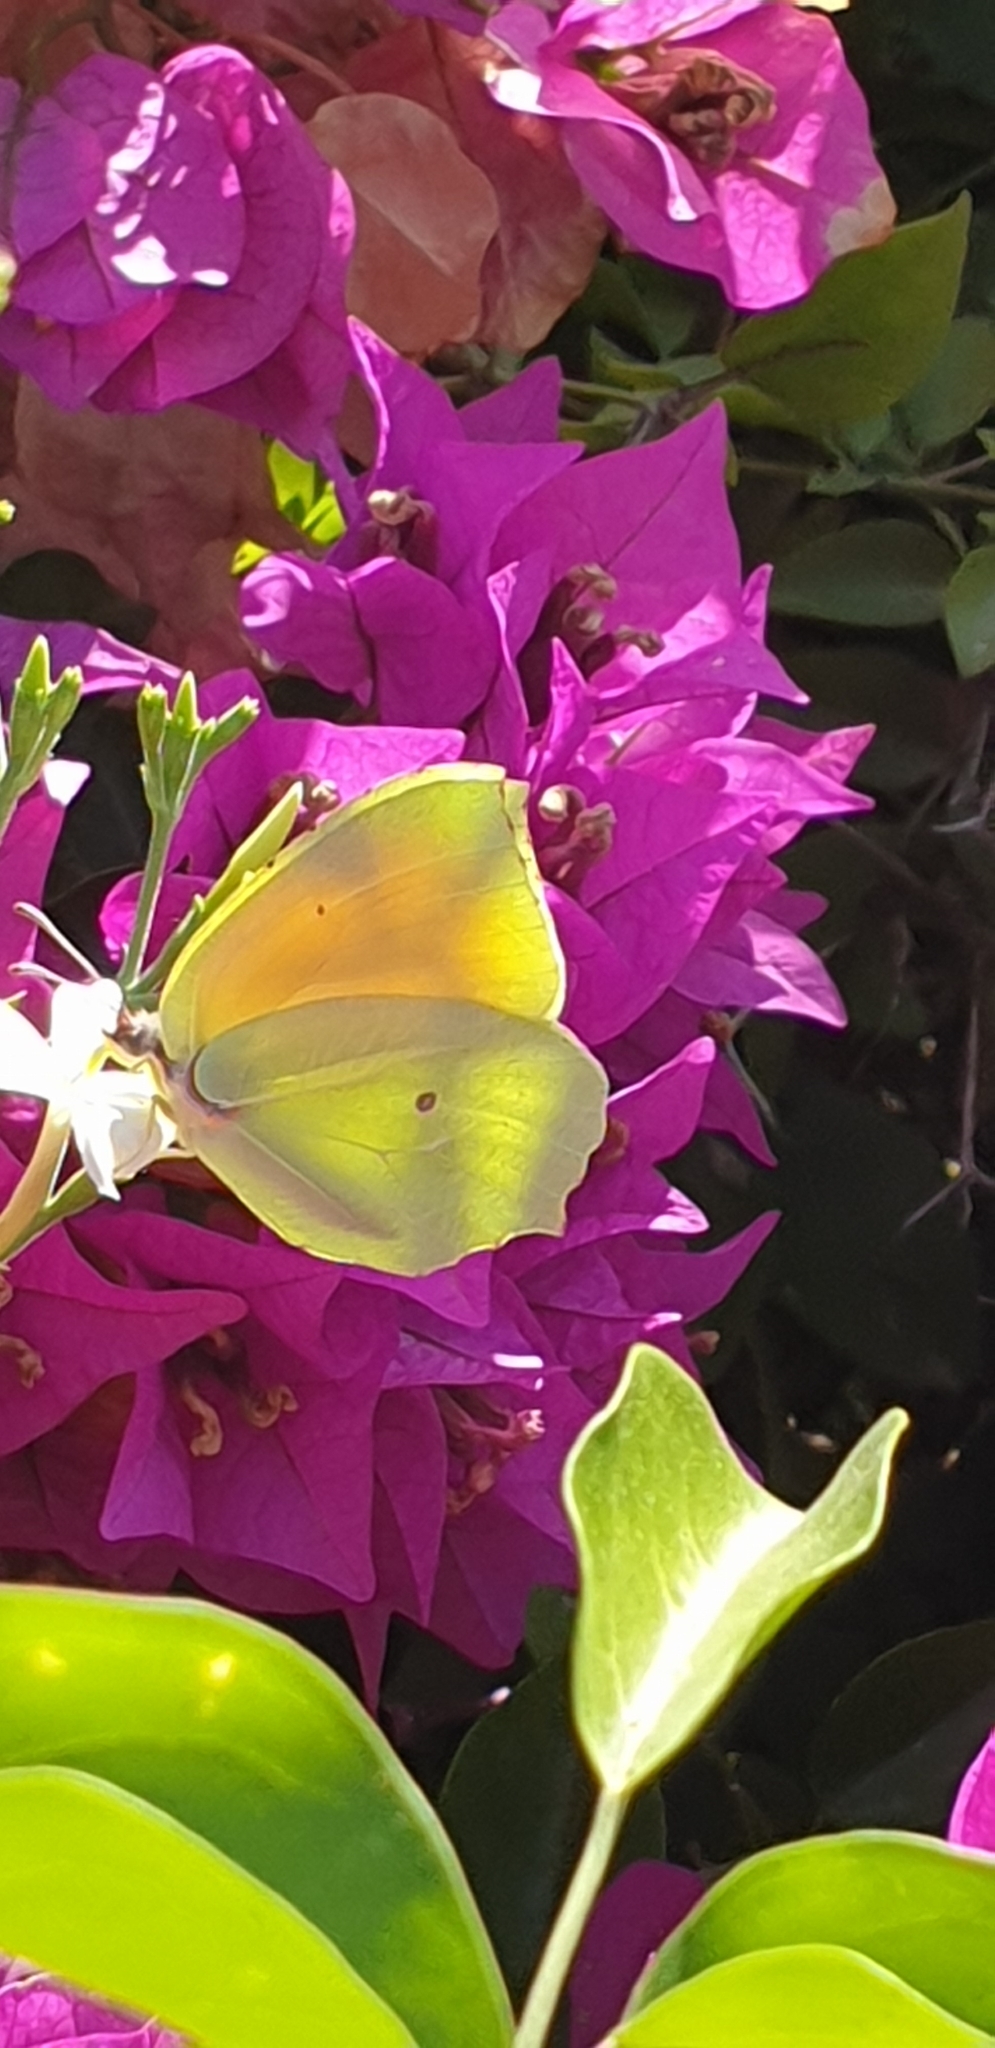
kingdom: Animalia
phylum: Arthropoda
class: Insecta
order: Lepidoptera
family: Pieridae
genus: Gonepteryx
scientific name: Gonepteryx cleopatra
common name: Cleopatra
